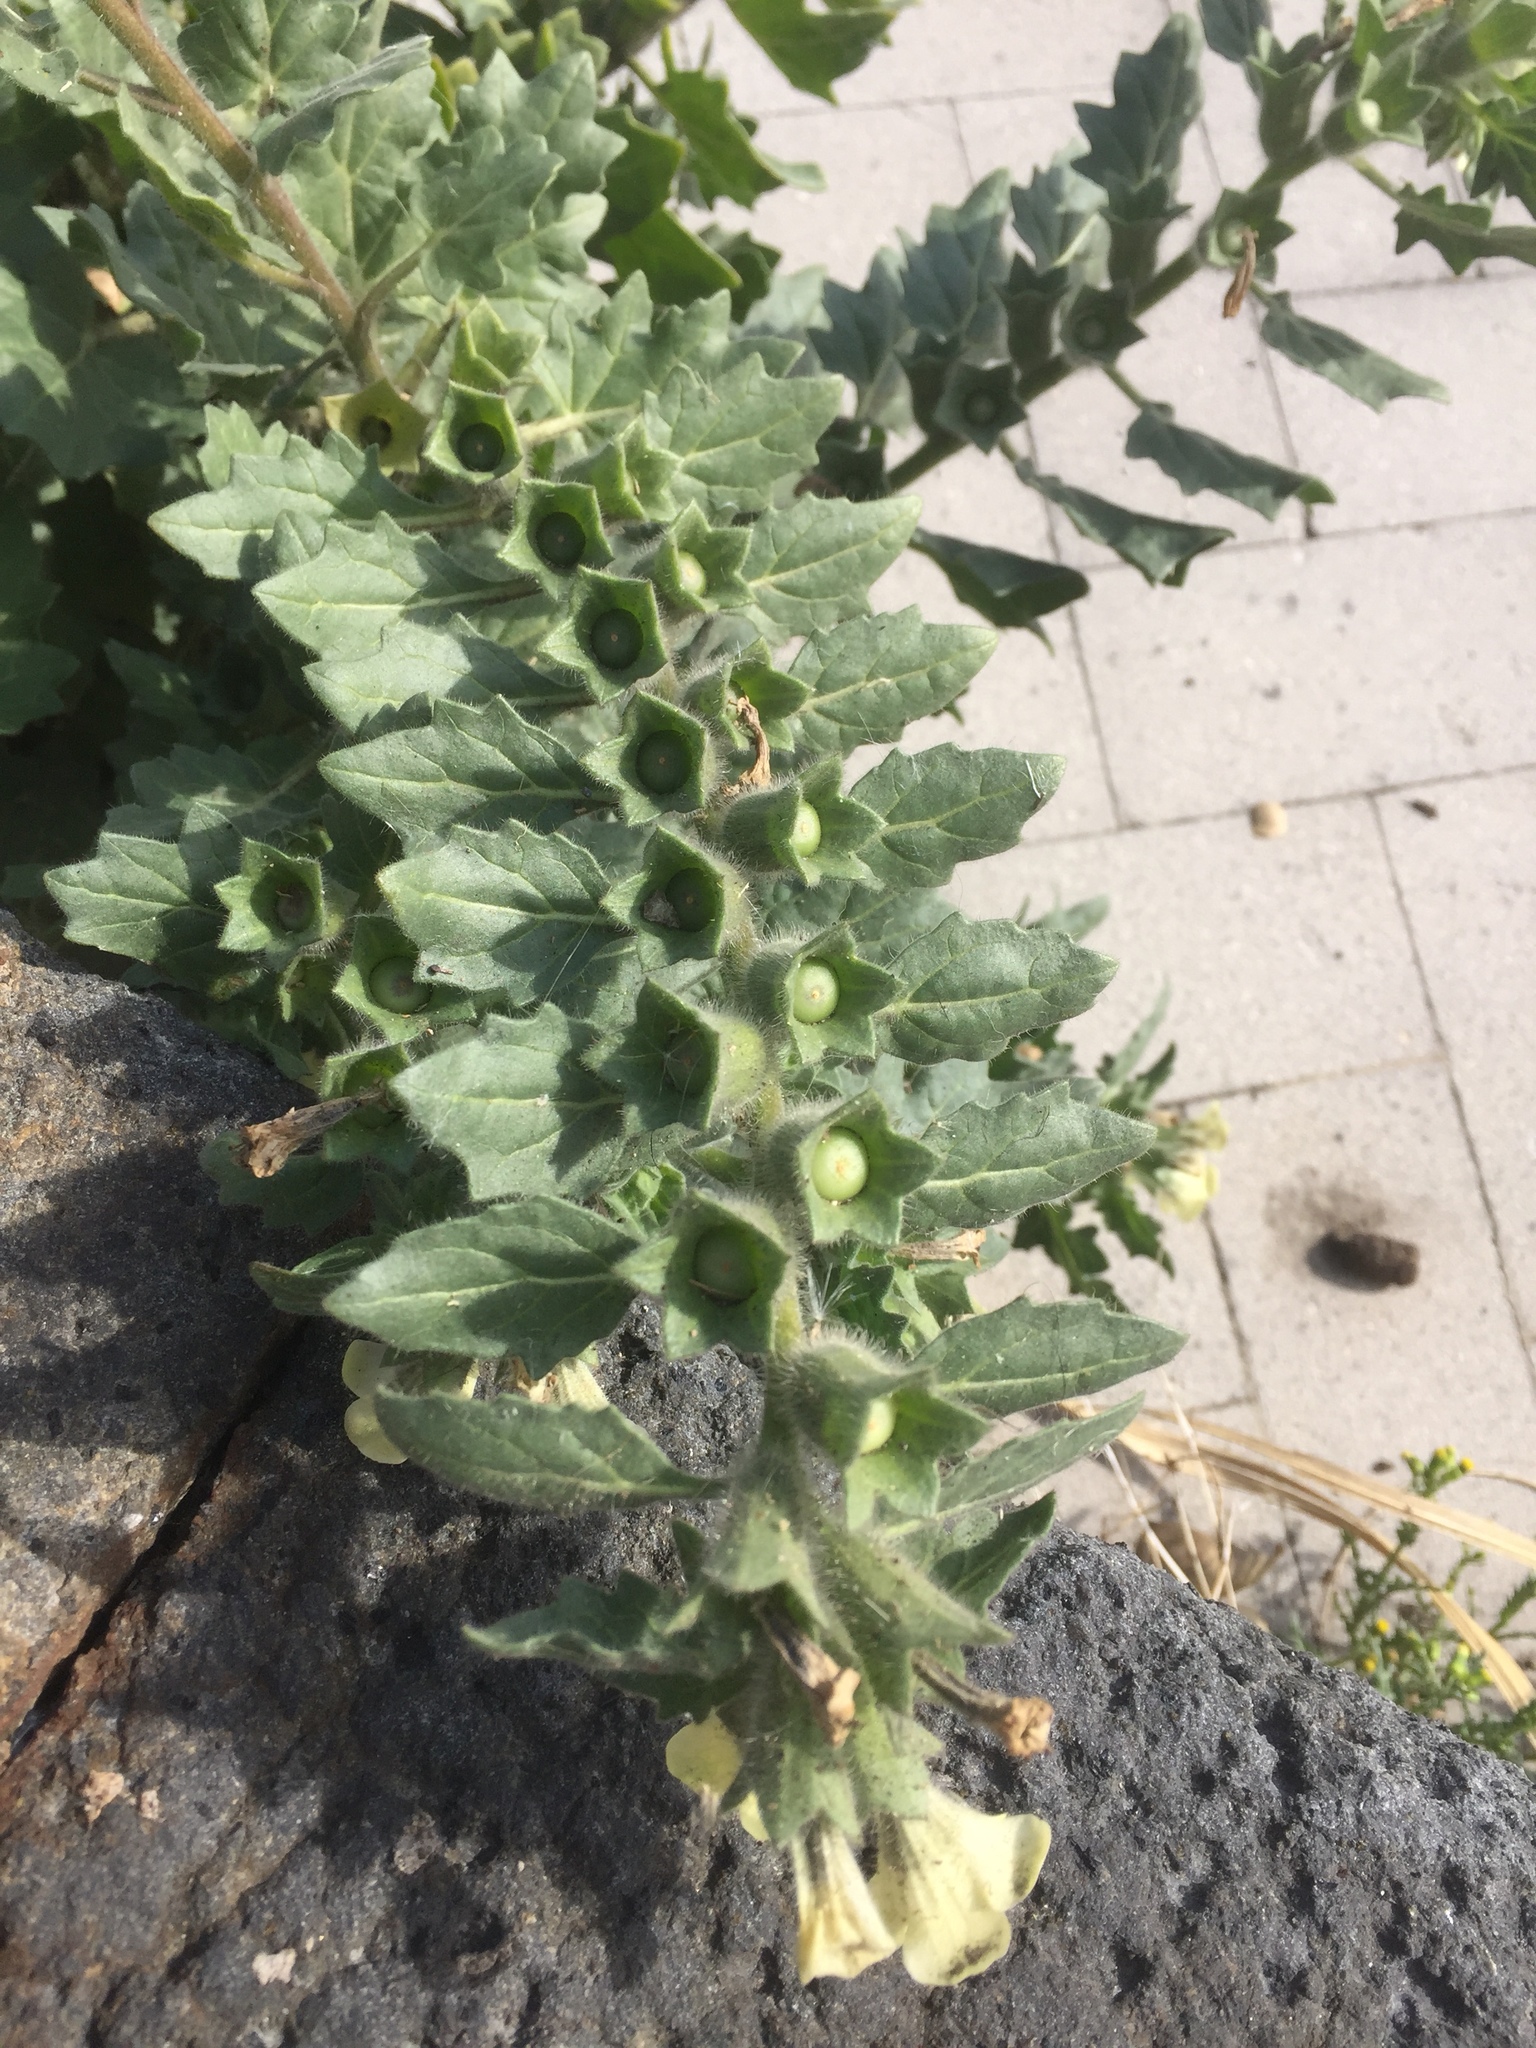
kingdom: Plantae
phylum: Tracheophyta
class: Magnoliopsida
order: Solanales
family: Solanaceae
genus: Hyoscyamus
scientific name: Hyoscyamus albus
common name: White henbane
